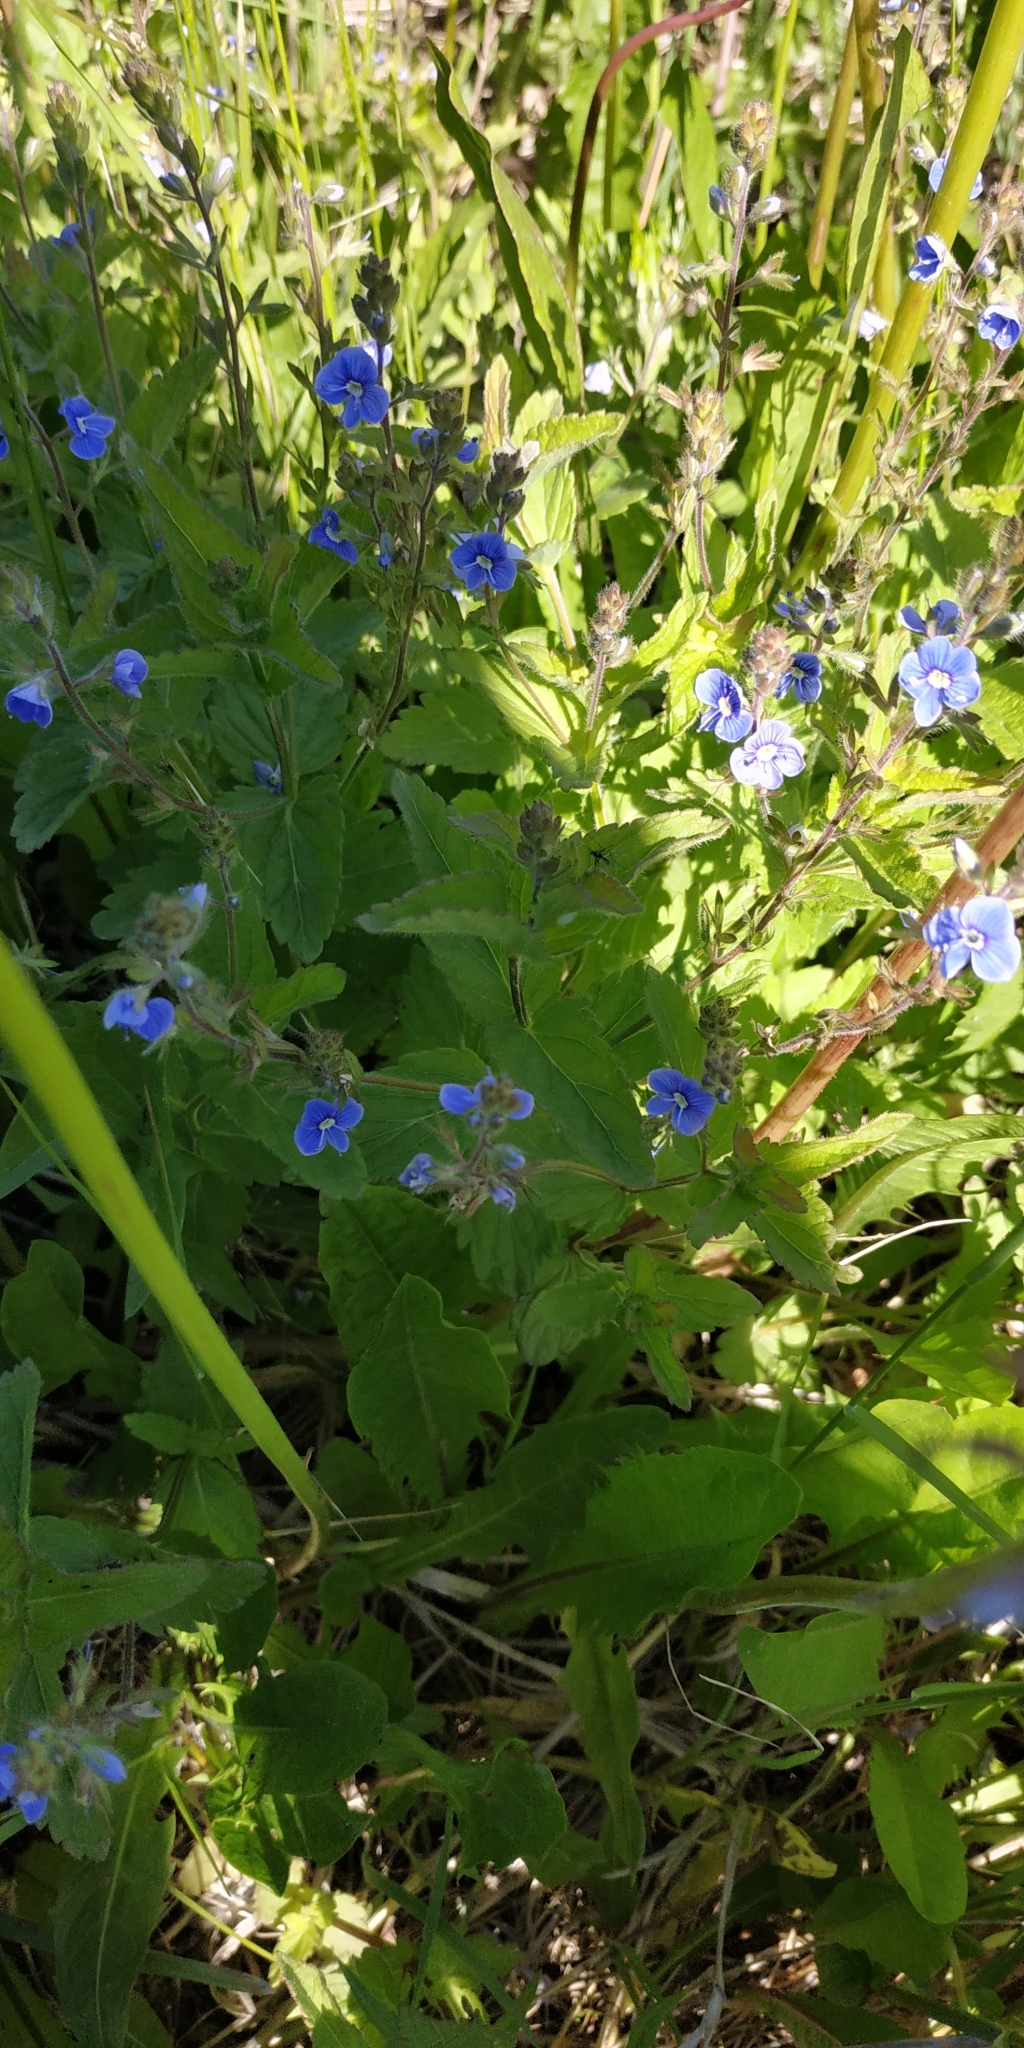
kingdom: Plantae
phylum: Tracheophyta
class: Magnoliopsida
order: Lamiales
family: Plantaginaceae
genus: Veronica
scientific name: Veronica chamaedrys
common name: Germander speedwell
